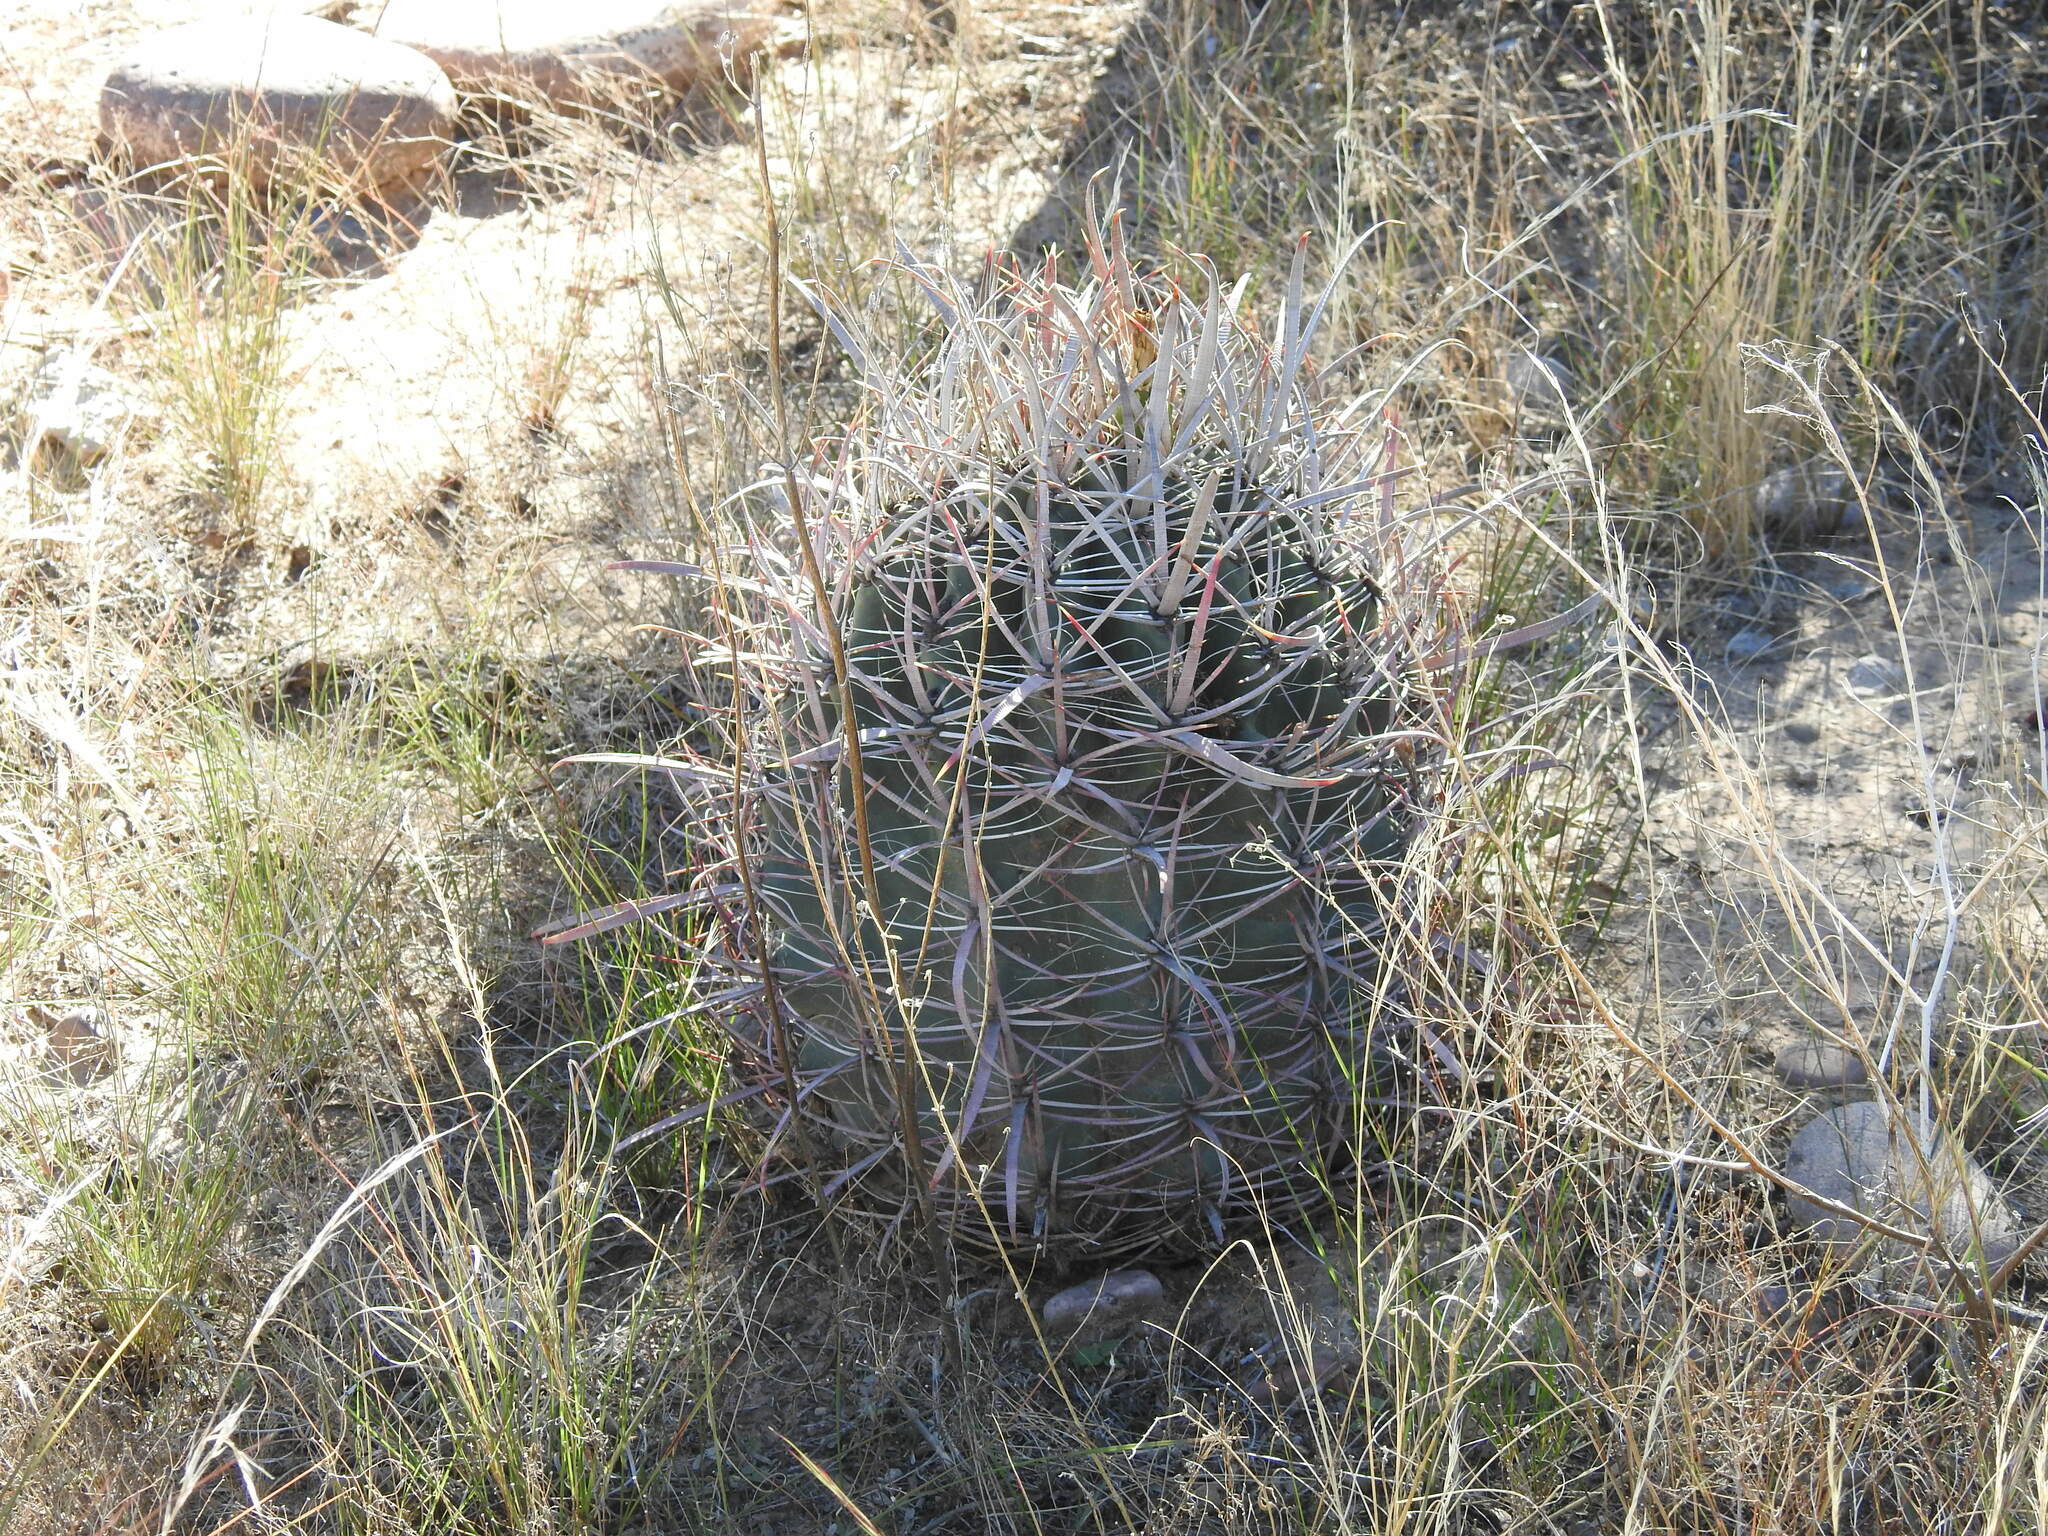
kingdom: Plantae
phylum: Tracheophyta
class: Magnoliopsida
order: Caryophyllales
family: Cactaceae
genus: Ferocactus
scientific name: Ferocactus cylindraceus
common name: California barrel cactus
